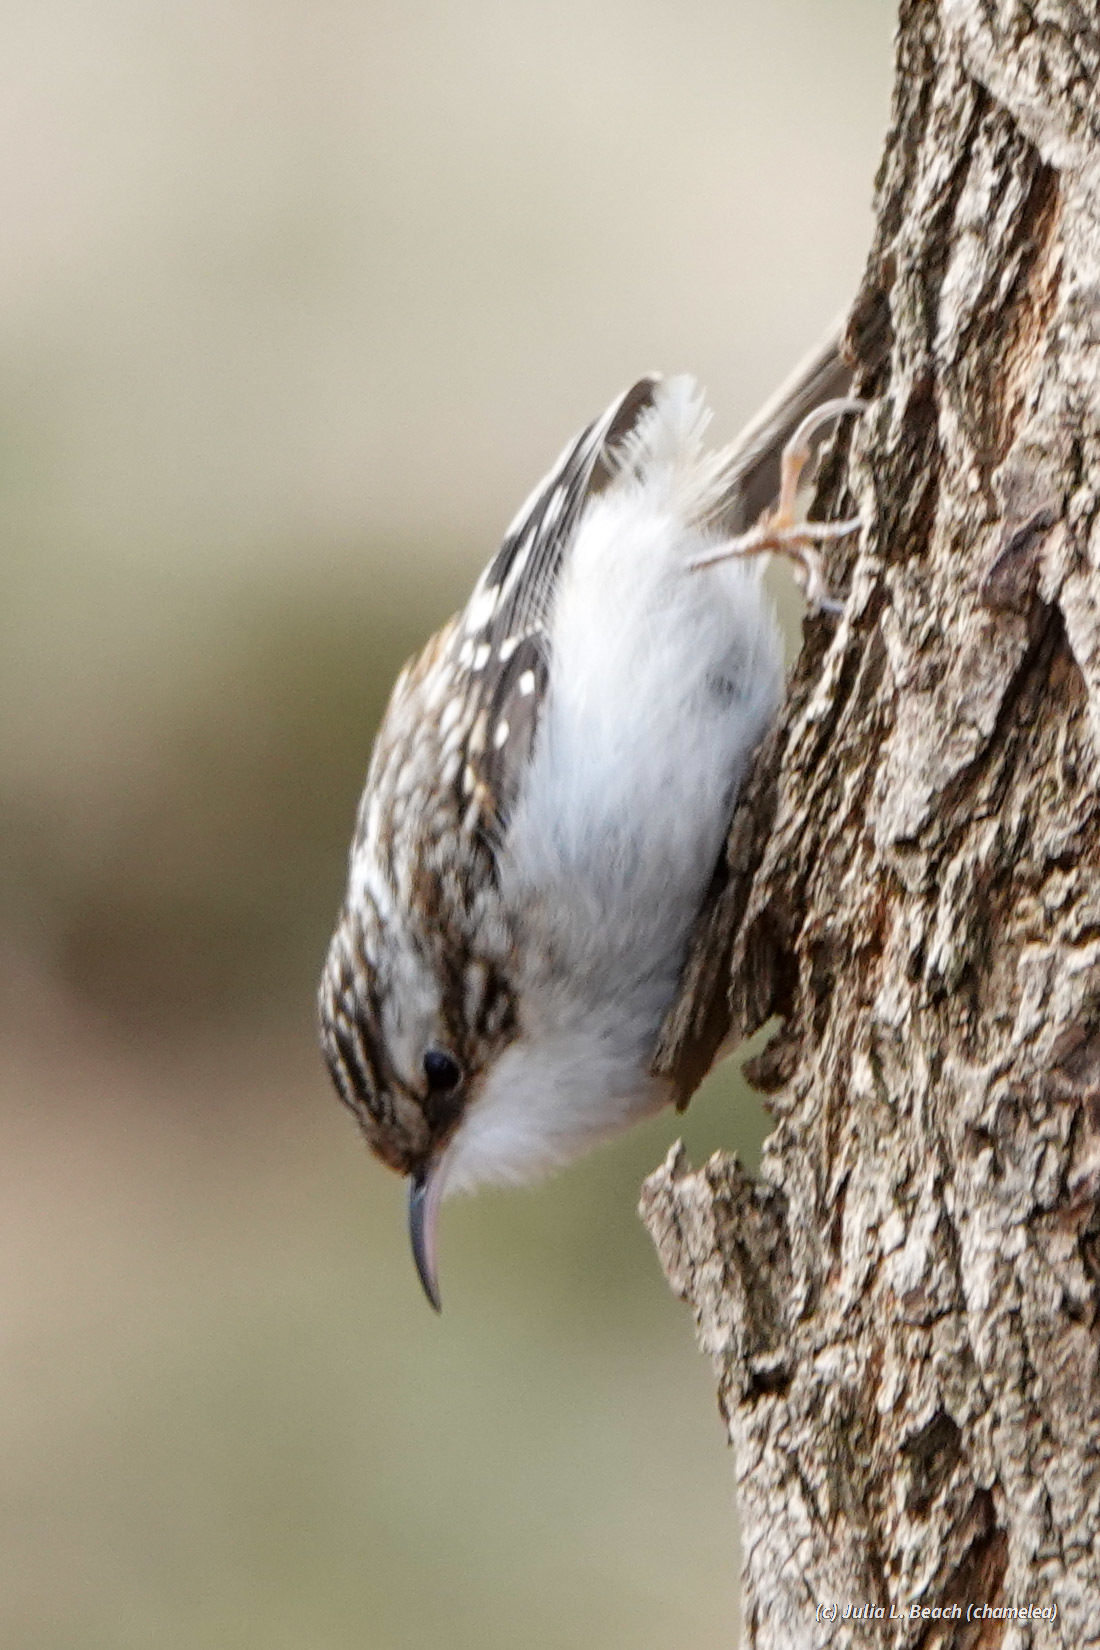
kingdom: Animalia
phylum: Chordata
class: Aves
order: Passeriformes
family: Certhiidae
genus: Certhia
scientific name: Certhia americana
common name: Brown creeper
